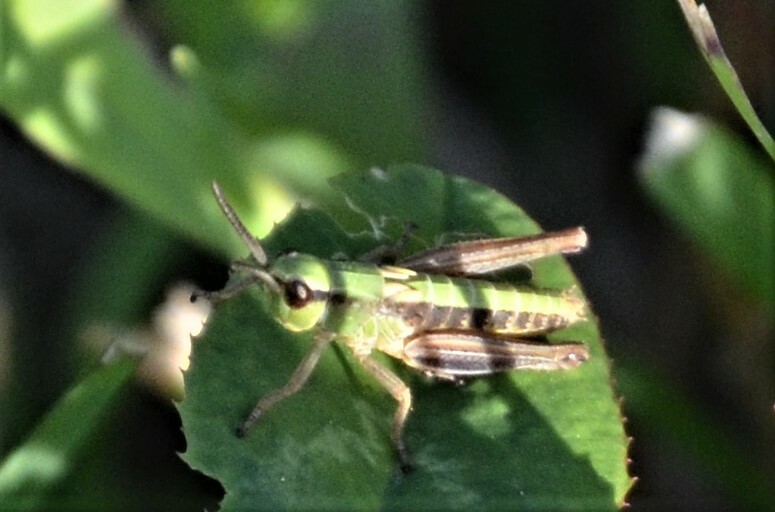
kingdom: Animalia
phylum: Arthropoda
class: Insecta
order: Orthoptera
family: Acrididae
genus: Pseudochorthippus
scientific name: Pseudochorthippus parallelus
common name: Meadow grasshopper
